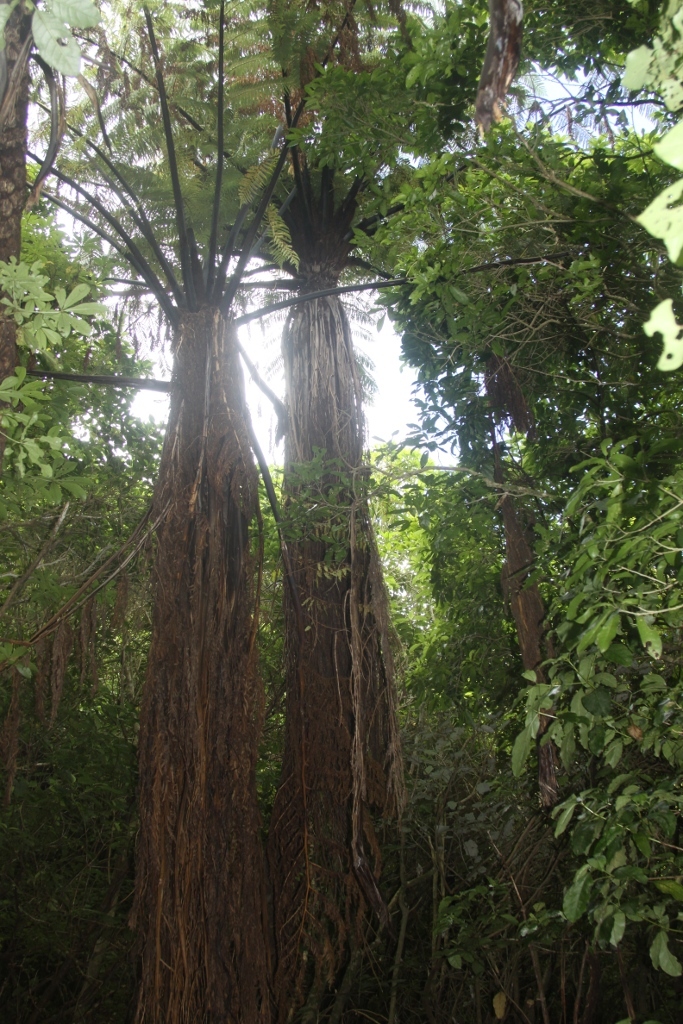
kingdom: Plantae
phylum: Tracheophyta
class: Polypodiopsida
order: Cyatheales
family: Cyatheaceae
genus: Sphaeropteris
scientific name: Sphaeropteris medullaris
